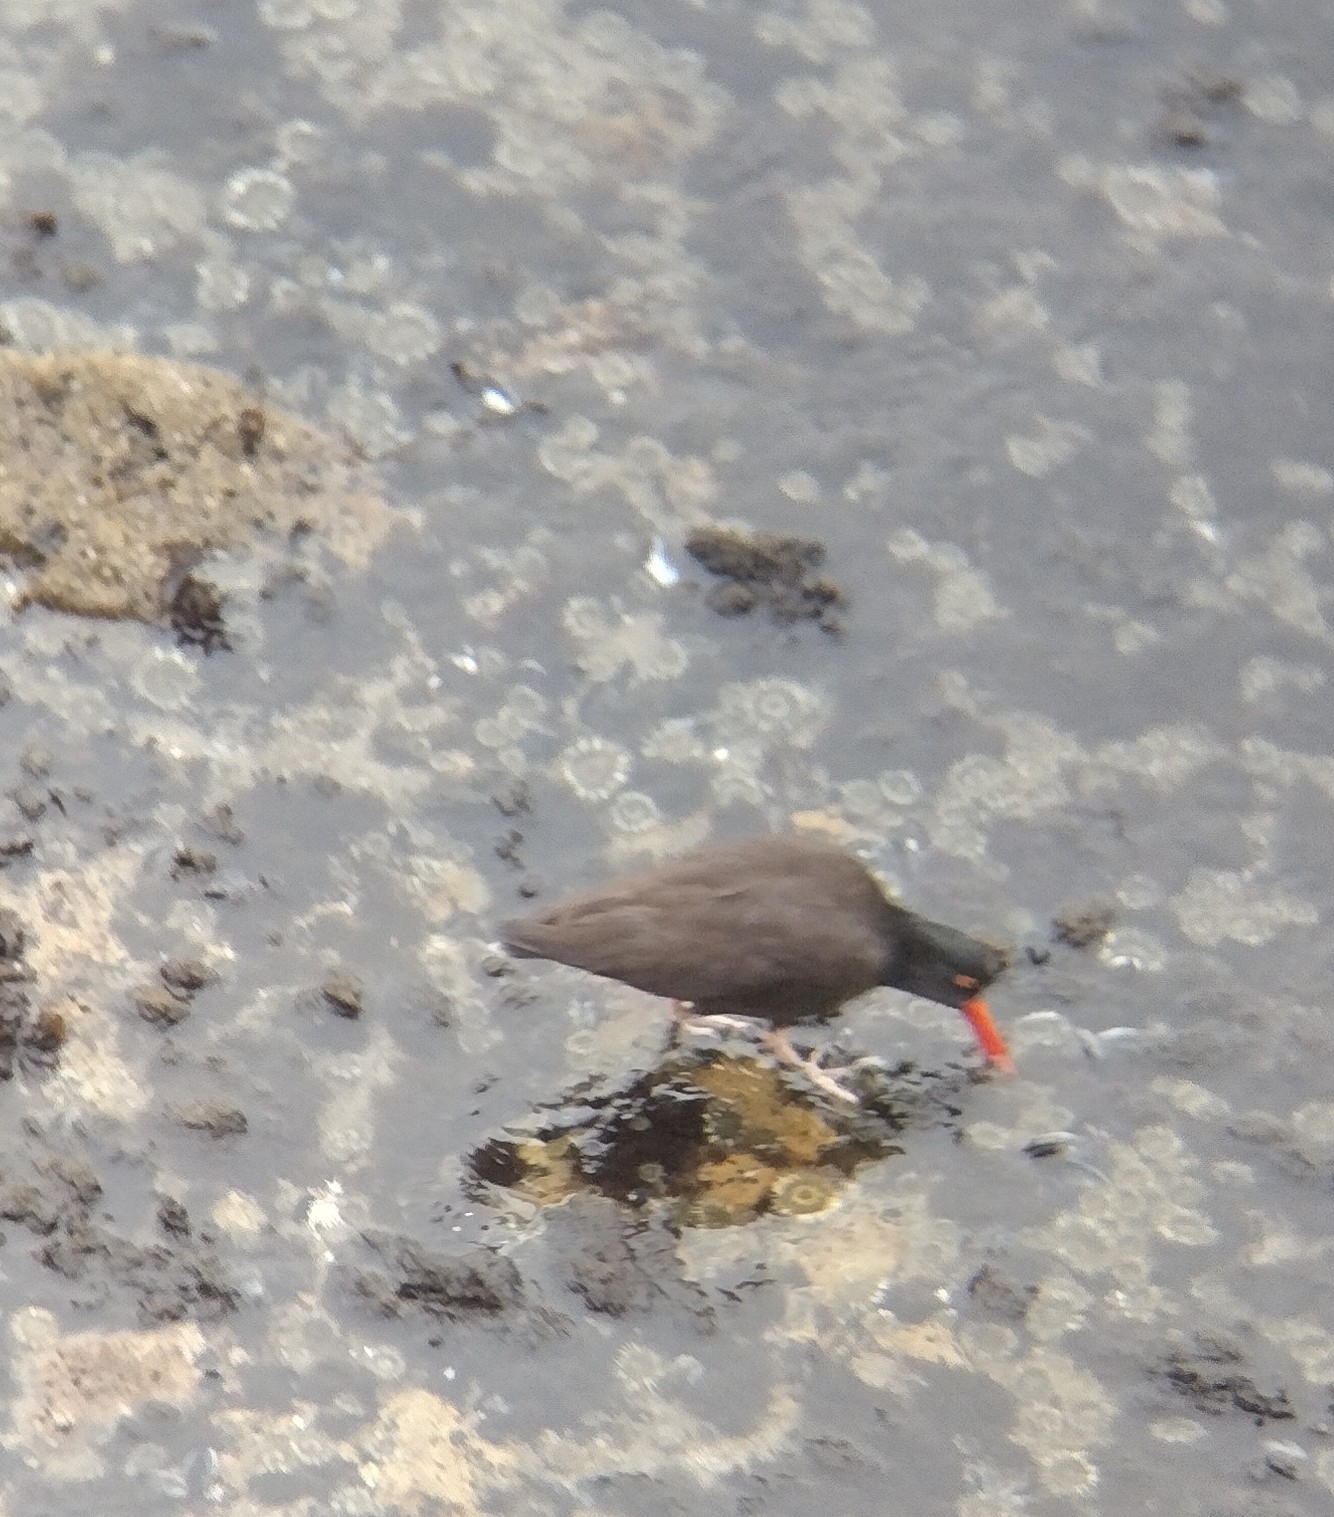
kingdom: Animalia
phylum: Chordata
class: Aves
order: Charadriiformes
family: Haematopodidae
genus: Haematopus
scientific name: Haematopus bachmani
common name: Black oystercatcher
